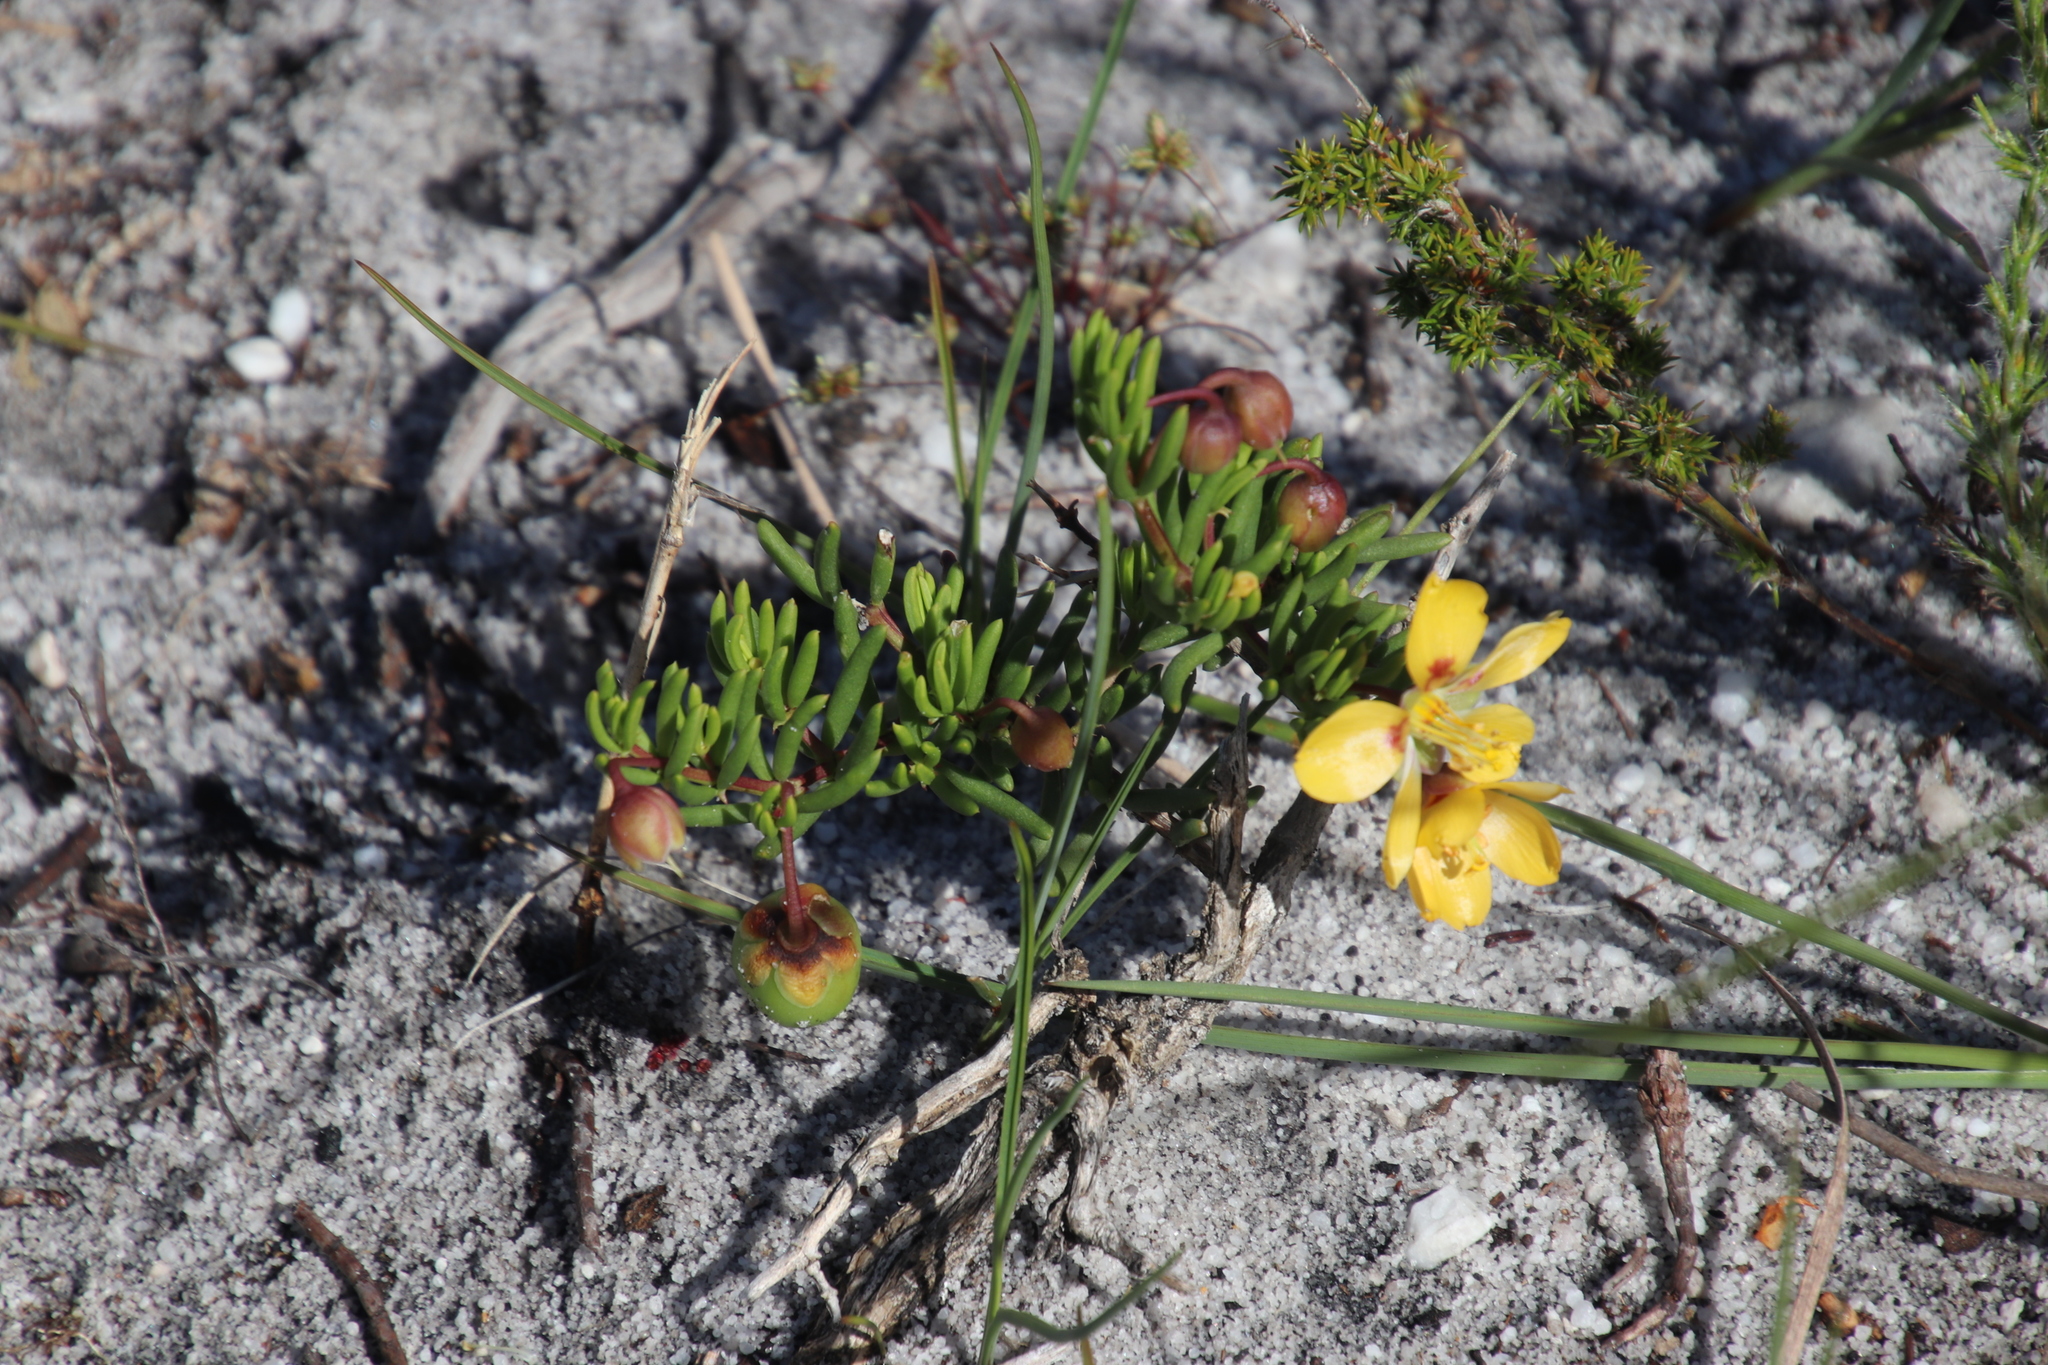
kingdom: Plantae
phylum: Tracheophyta
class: Magnoliopsida
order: Zygophyllales
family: Zygophyllaceae
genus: Roepera
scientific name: Roepera spinosa
